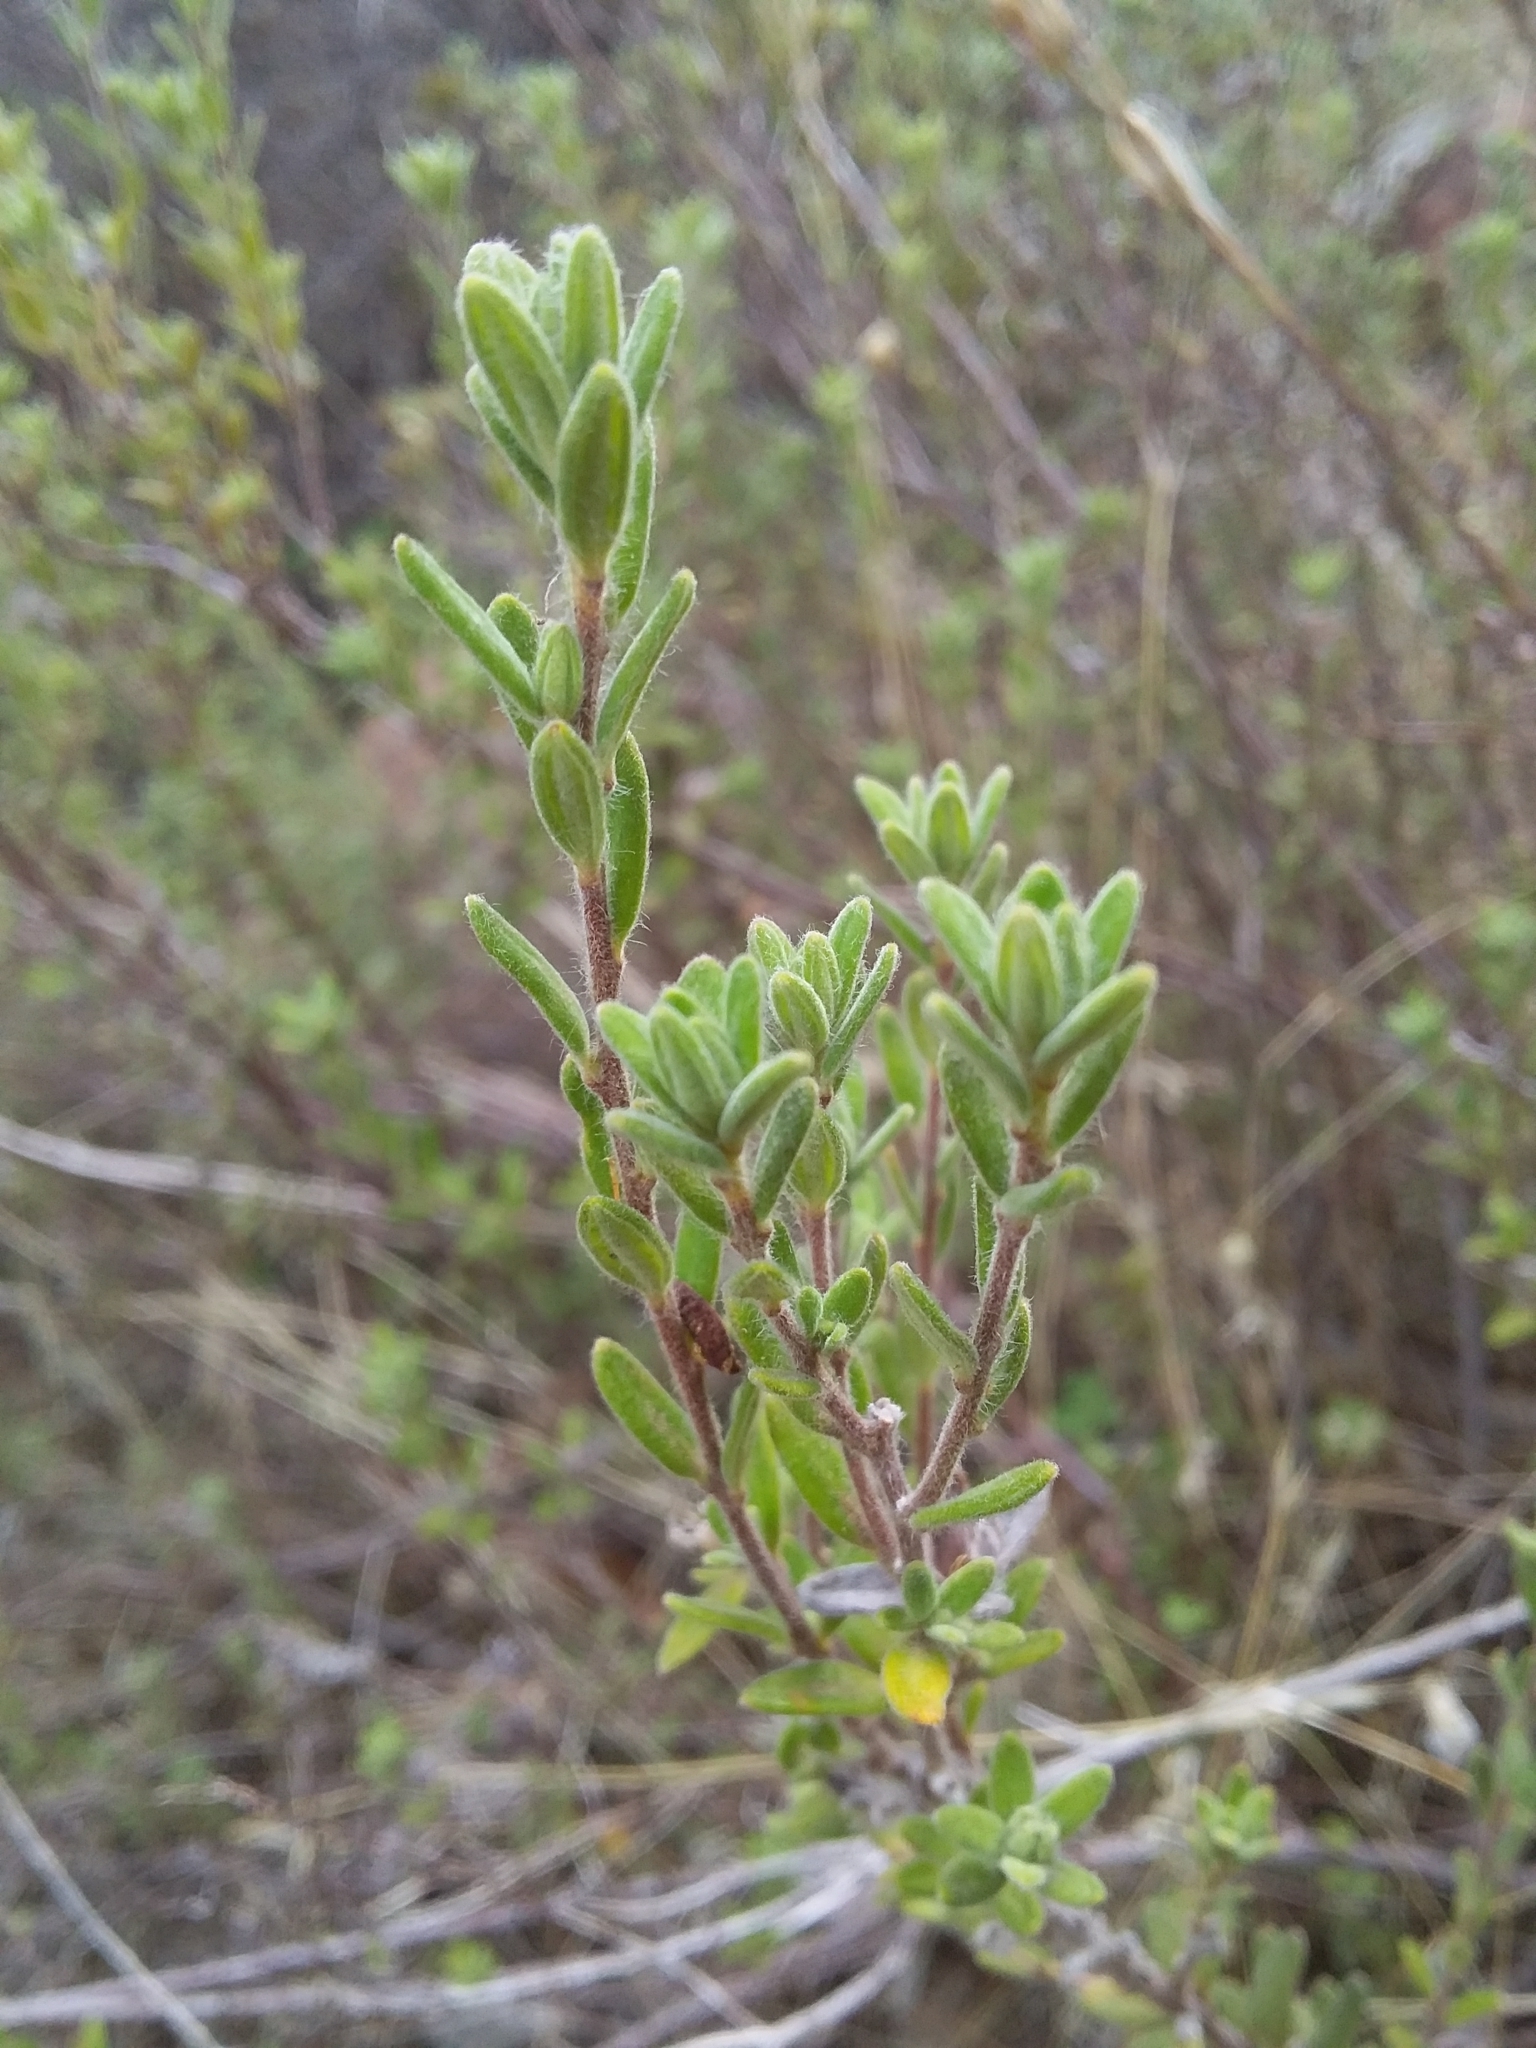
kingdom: Plantae
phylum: Tracheophyta
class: Magnoliopsida
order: Dilleniales
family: Dilleniaceae
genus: Hibbertia
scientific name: Hibbertia crinita
